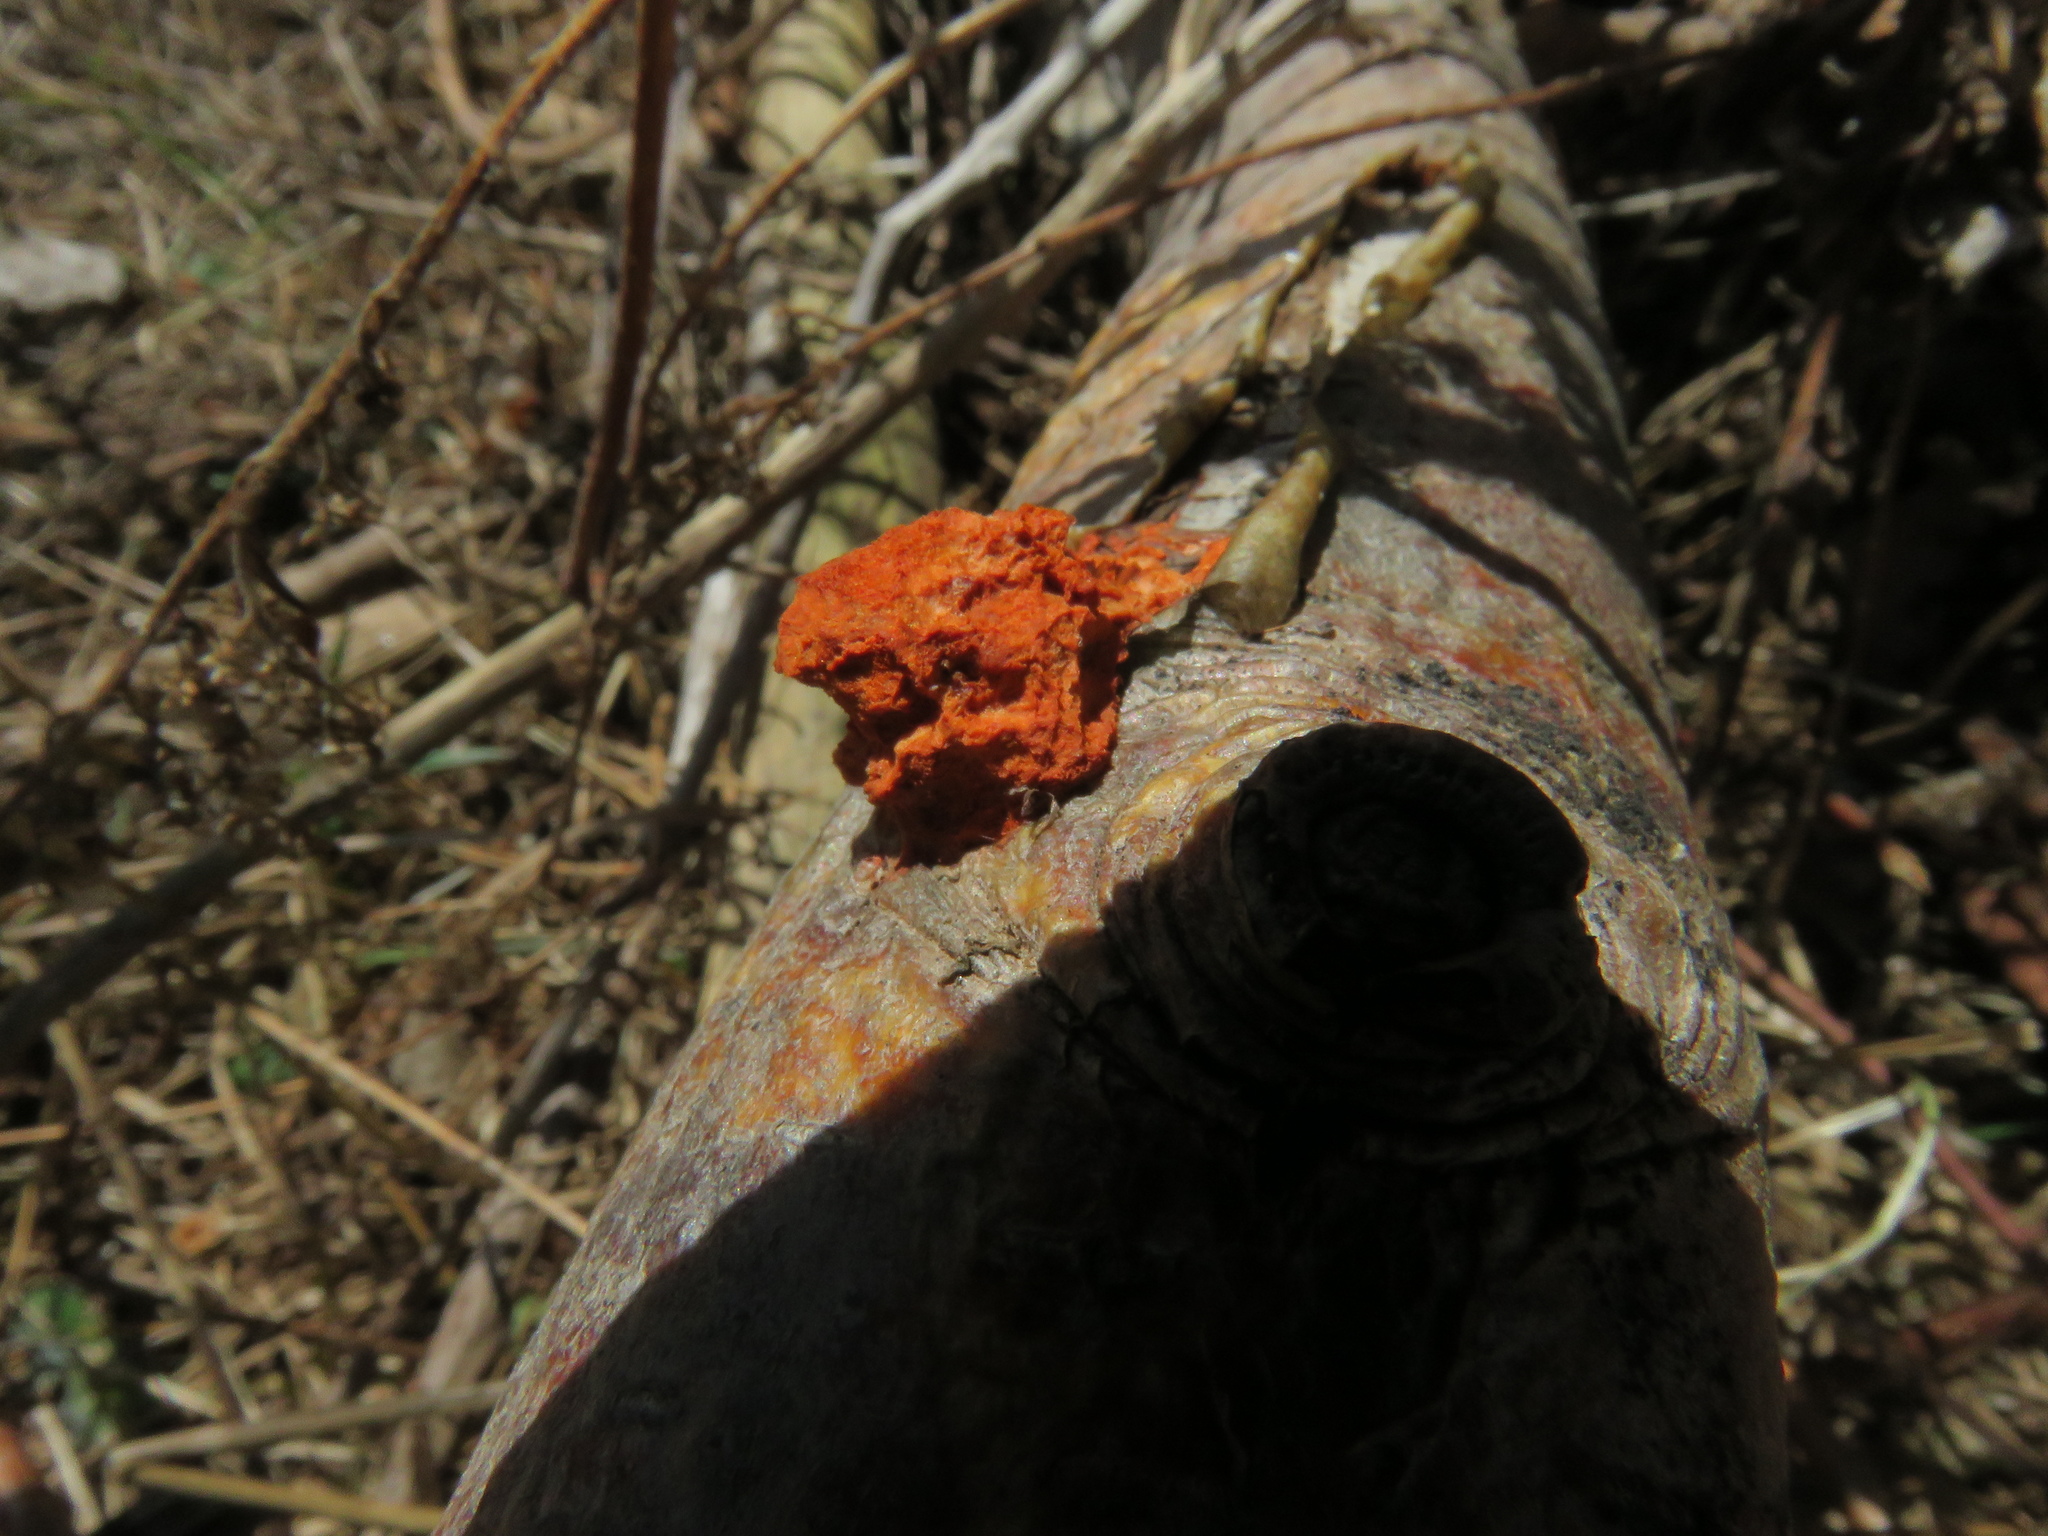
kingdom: Fungi
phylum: Basidiomycota
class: Agaricomycetes
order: Polyporales
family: Polyporaceae
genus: Trametes
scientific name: Trametes cinnabarina
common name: Northern cinnabar polypore
